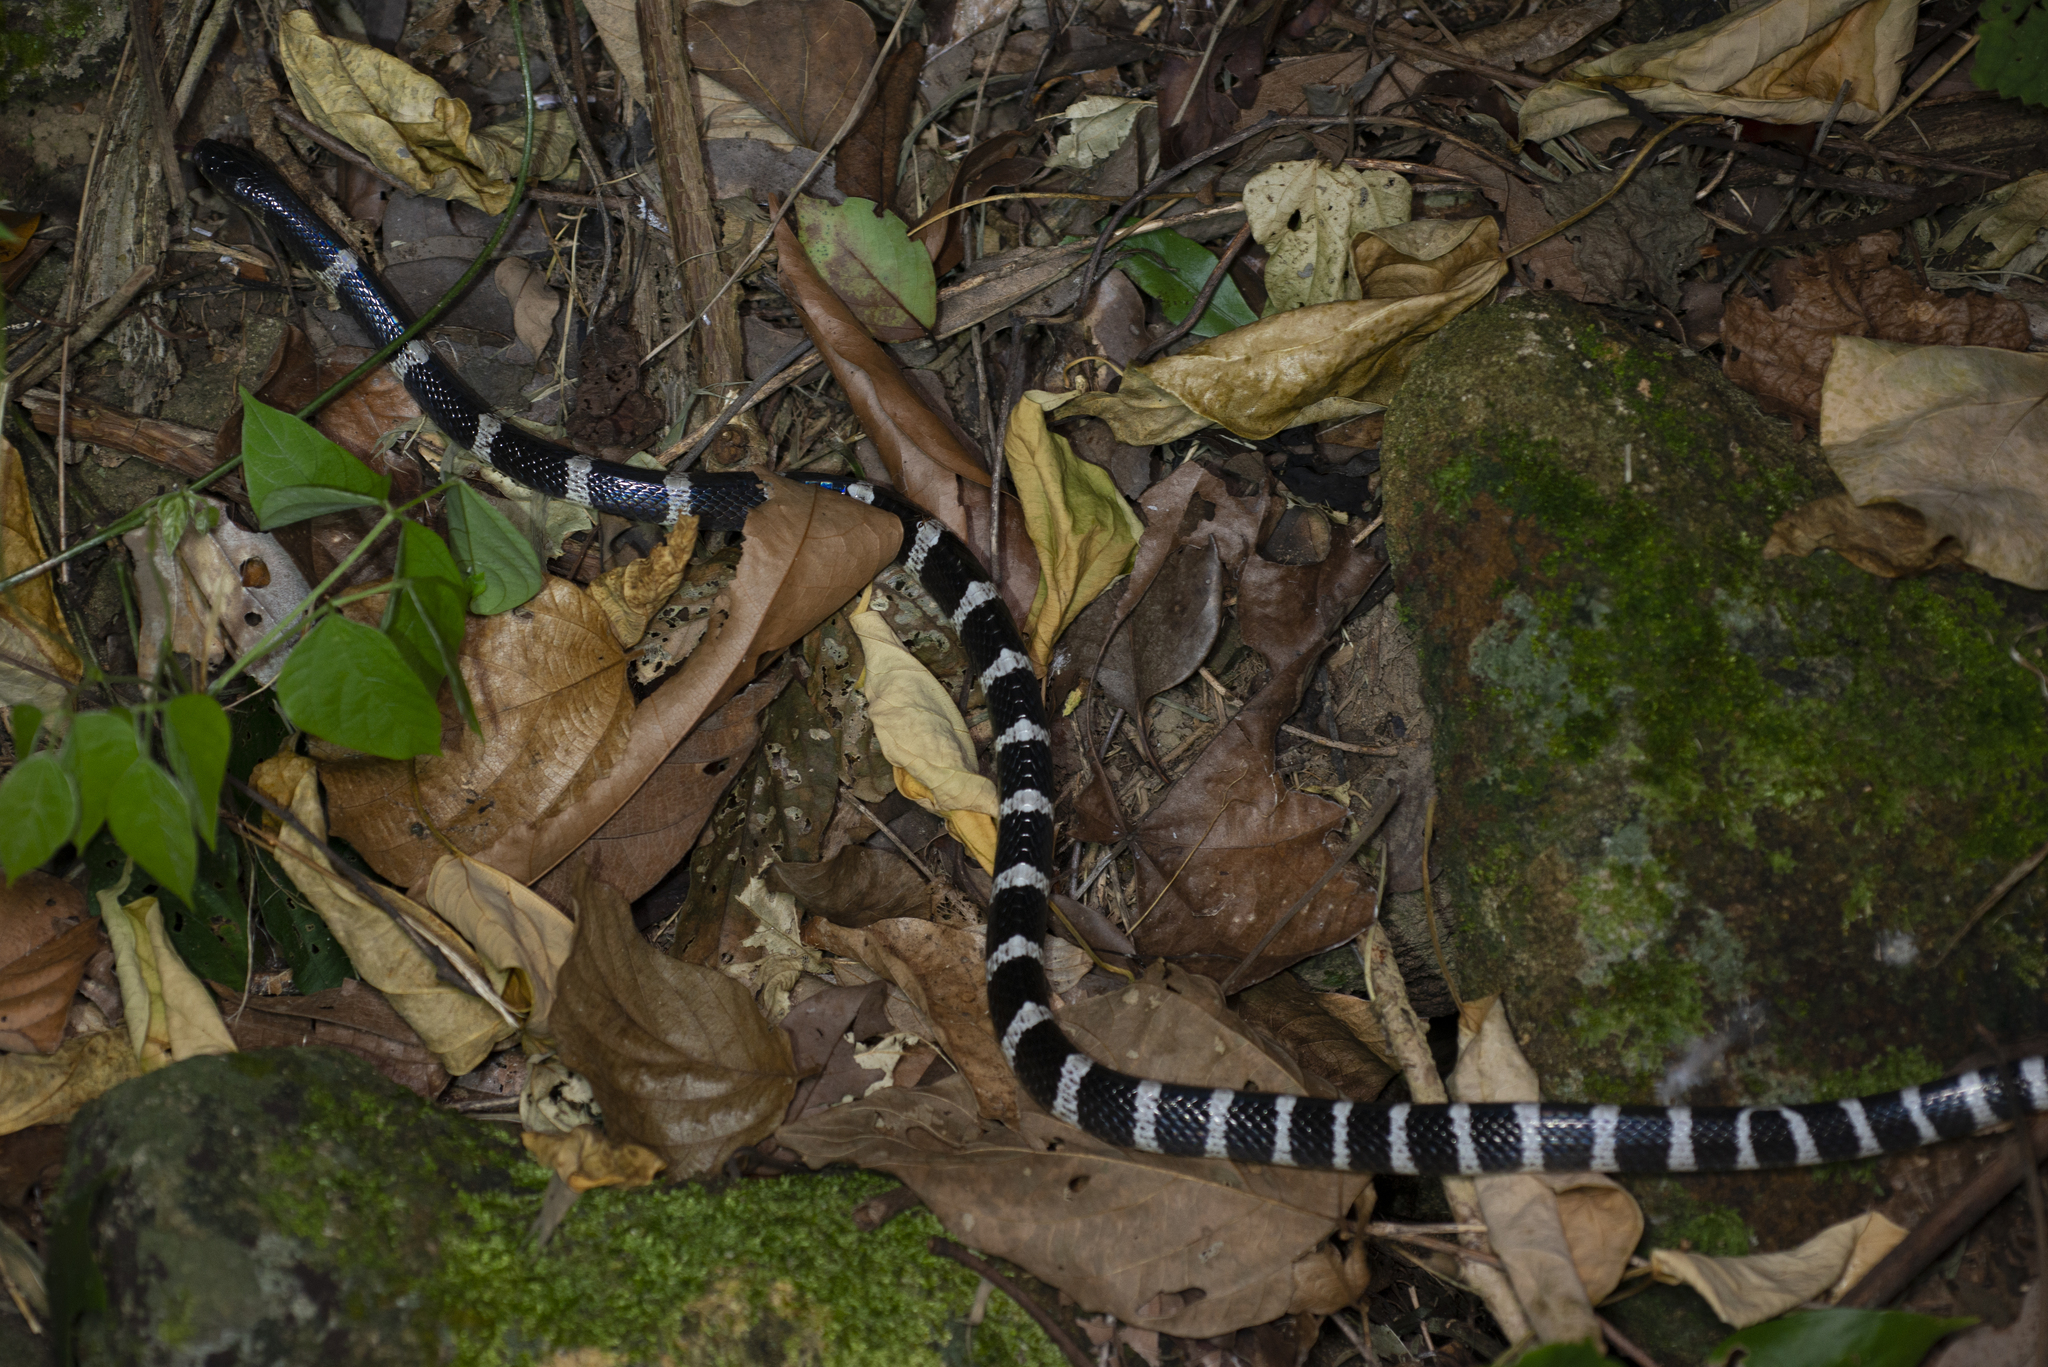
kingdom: Animalia
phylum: Chordata
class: Squamata
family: Elapidae
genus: Bungarus
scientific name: Bungarus multicinctus
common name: Many-banded krait
